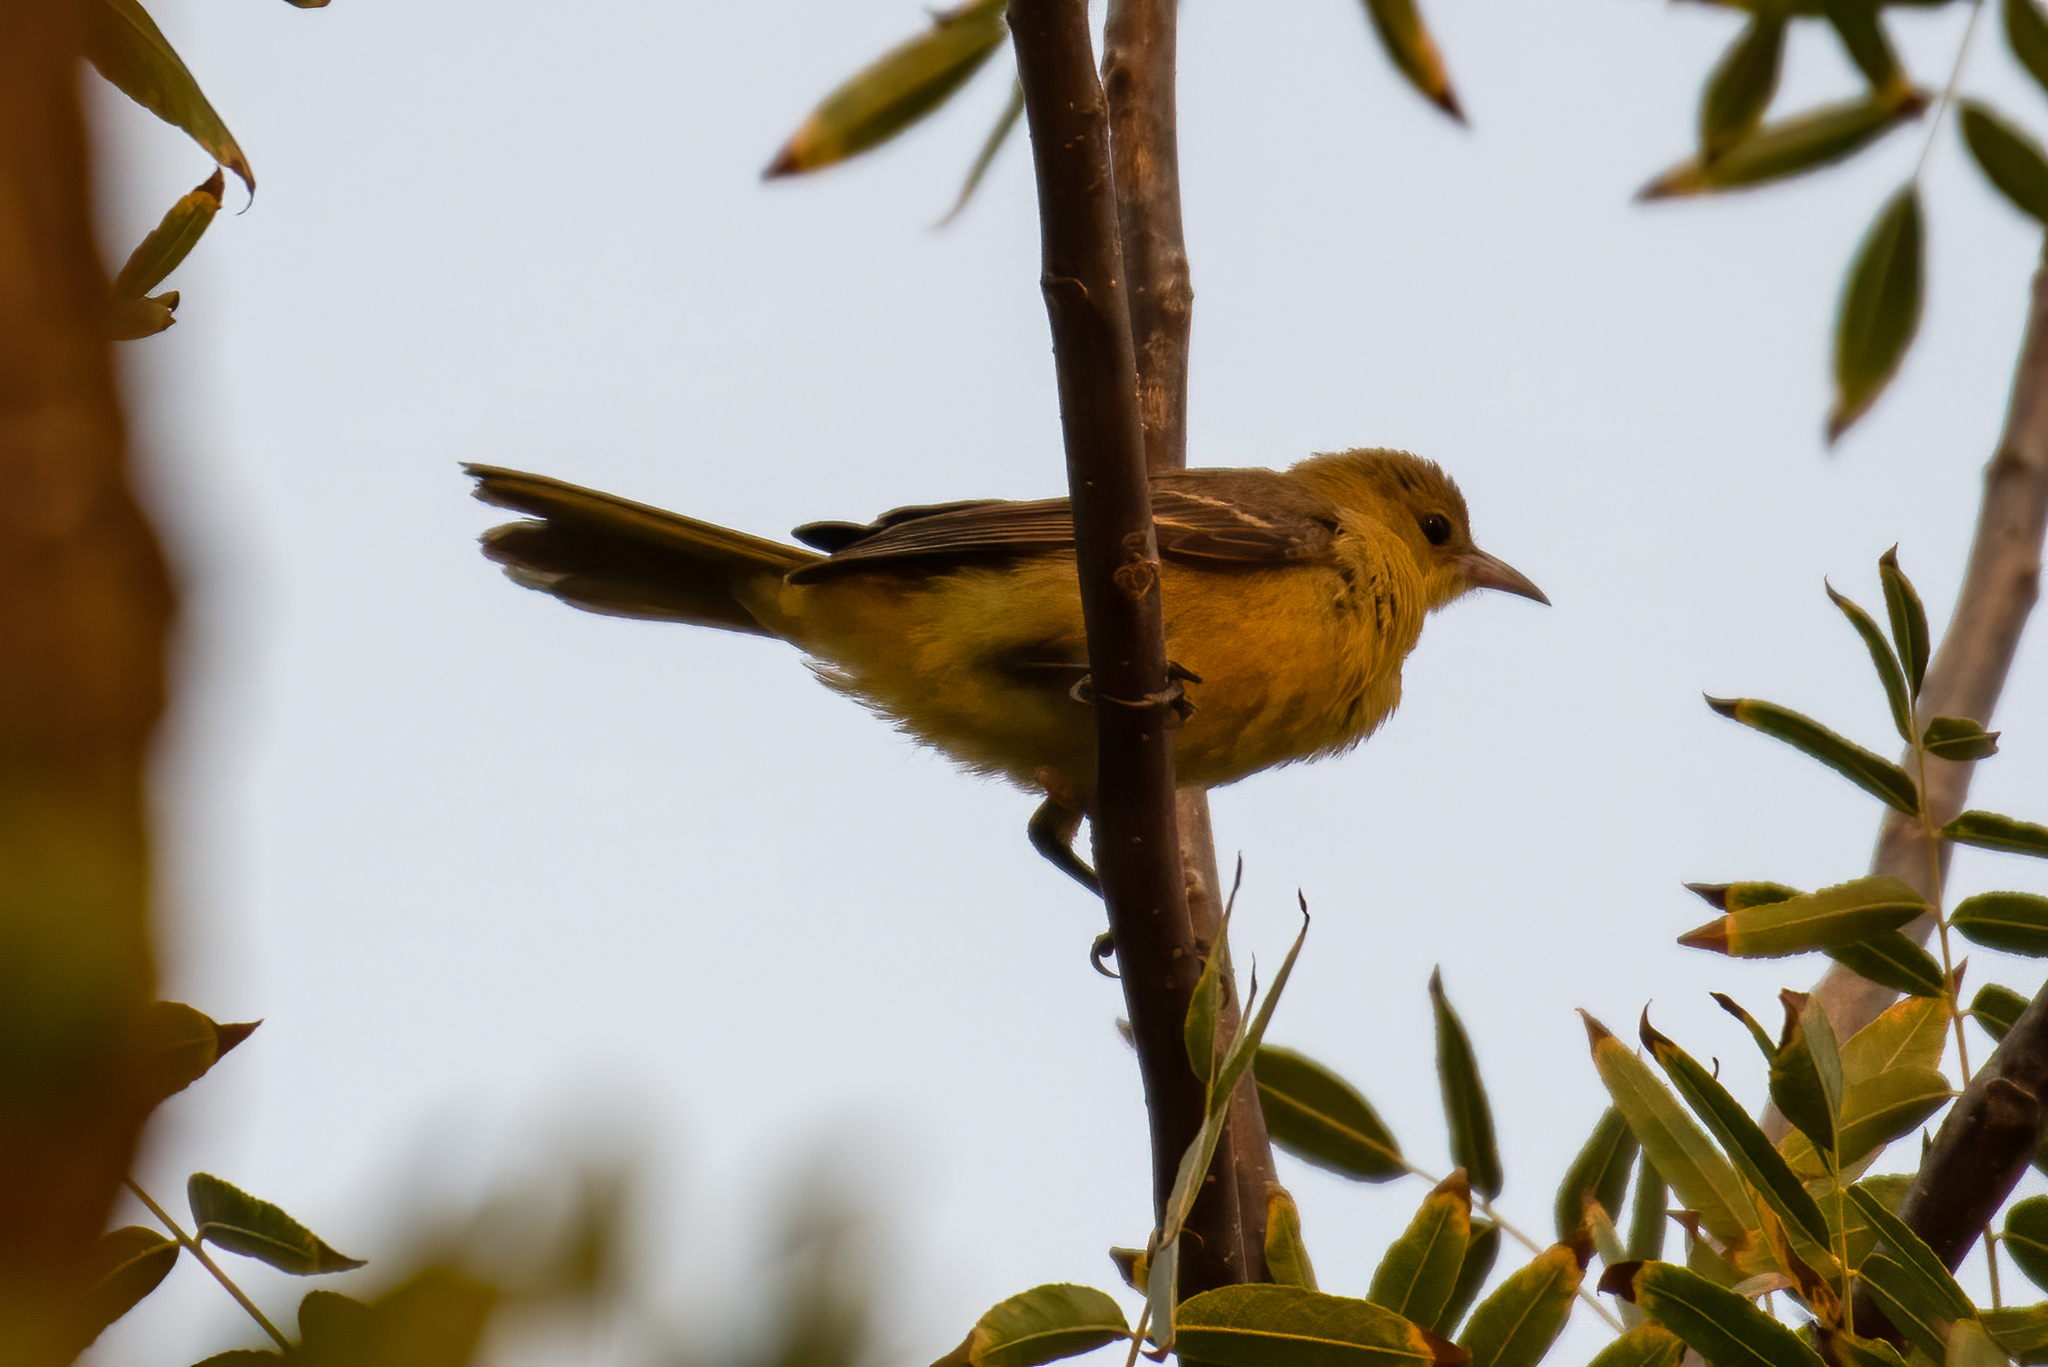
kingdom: Animalia
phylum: Chordata
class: Aves
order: Passeriformes
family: Icteridae
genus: Icterus
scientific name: Icterus cucullatus
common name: Hooded oriole
